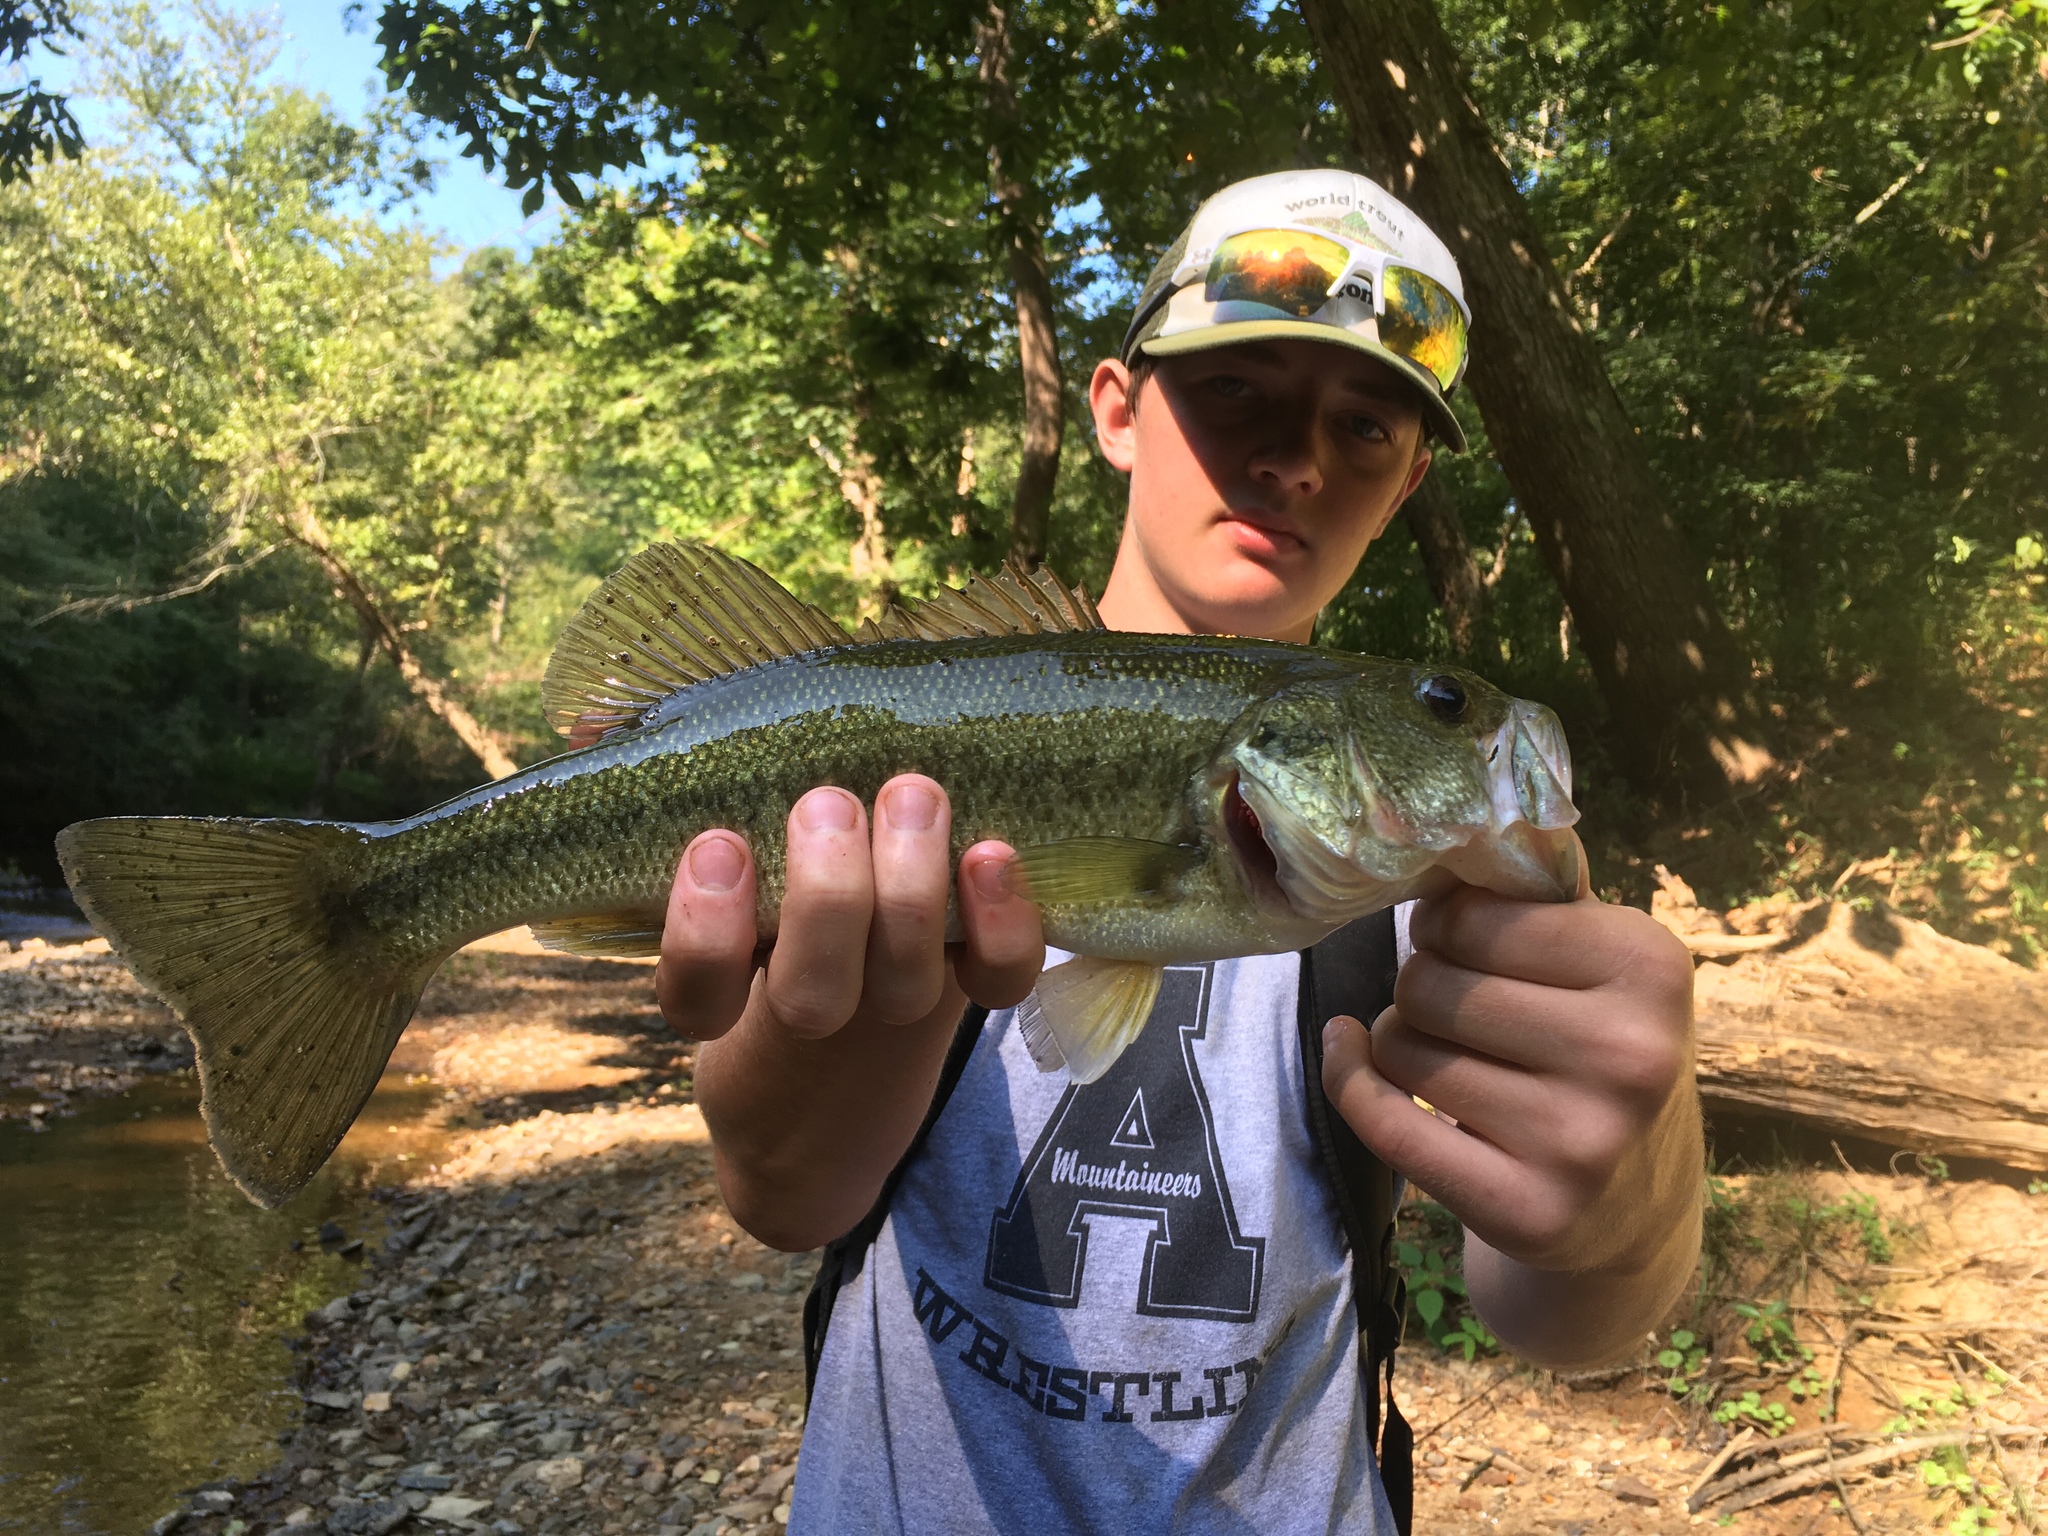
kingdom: Animalia
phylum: Chordata
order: Perciformes
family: Centrarchidae
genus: Micropterus
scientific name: Micropterus salmoides
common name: Largemouth bass
